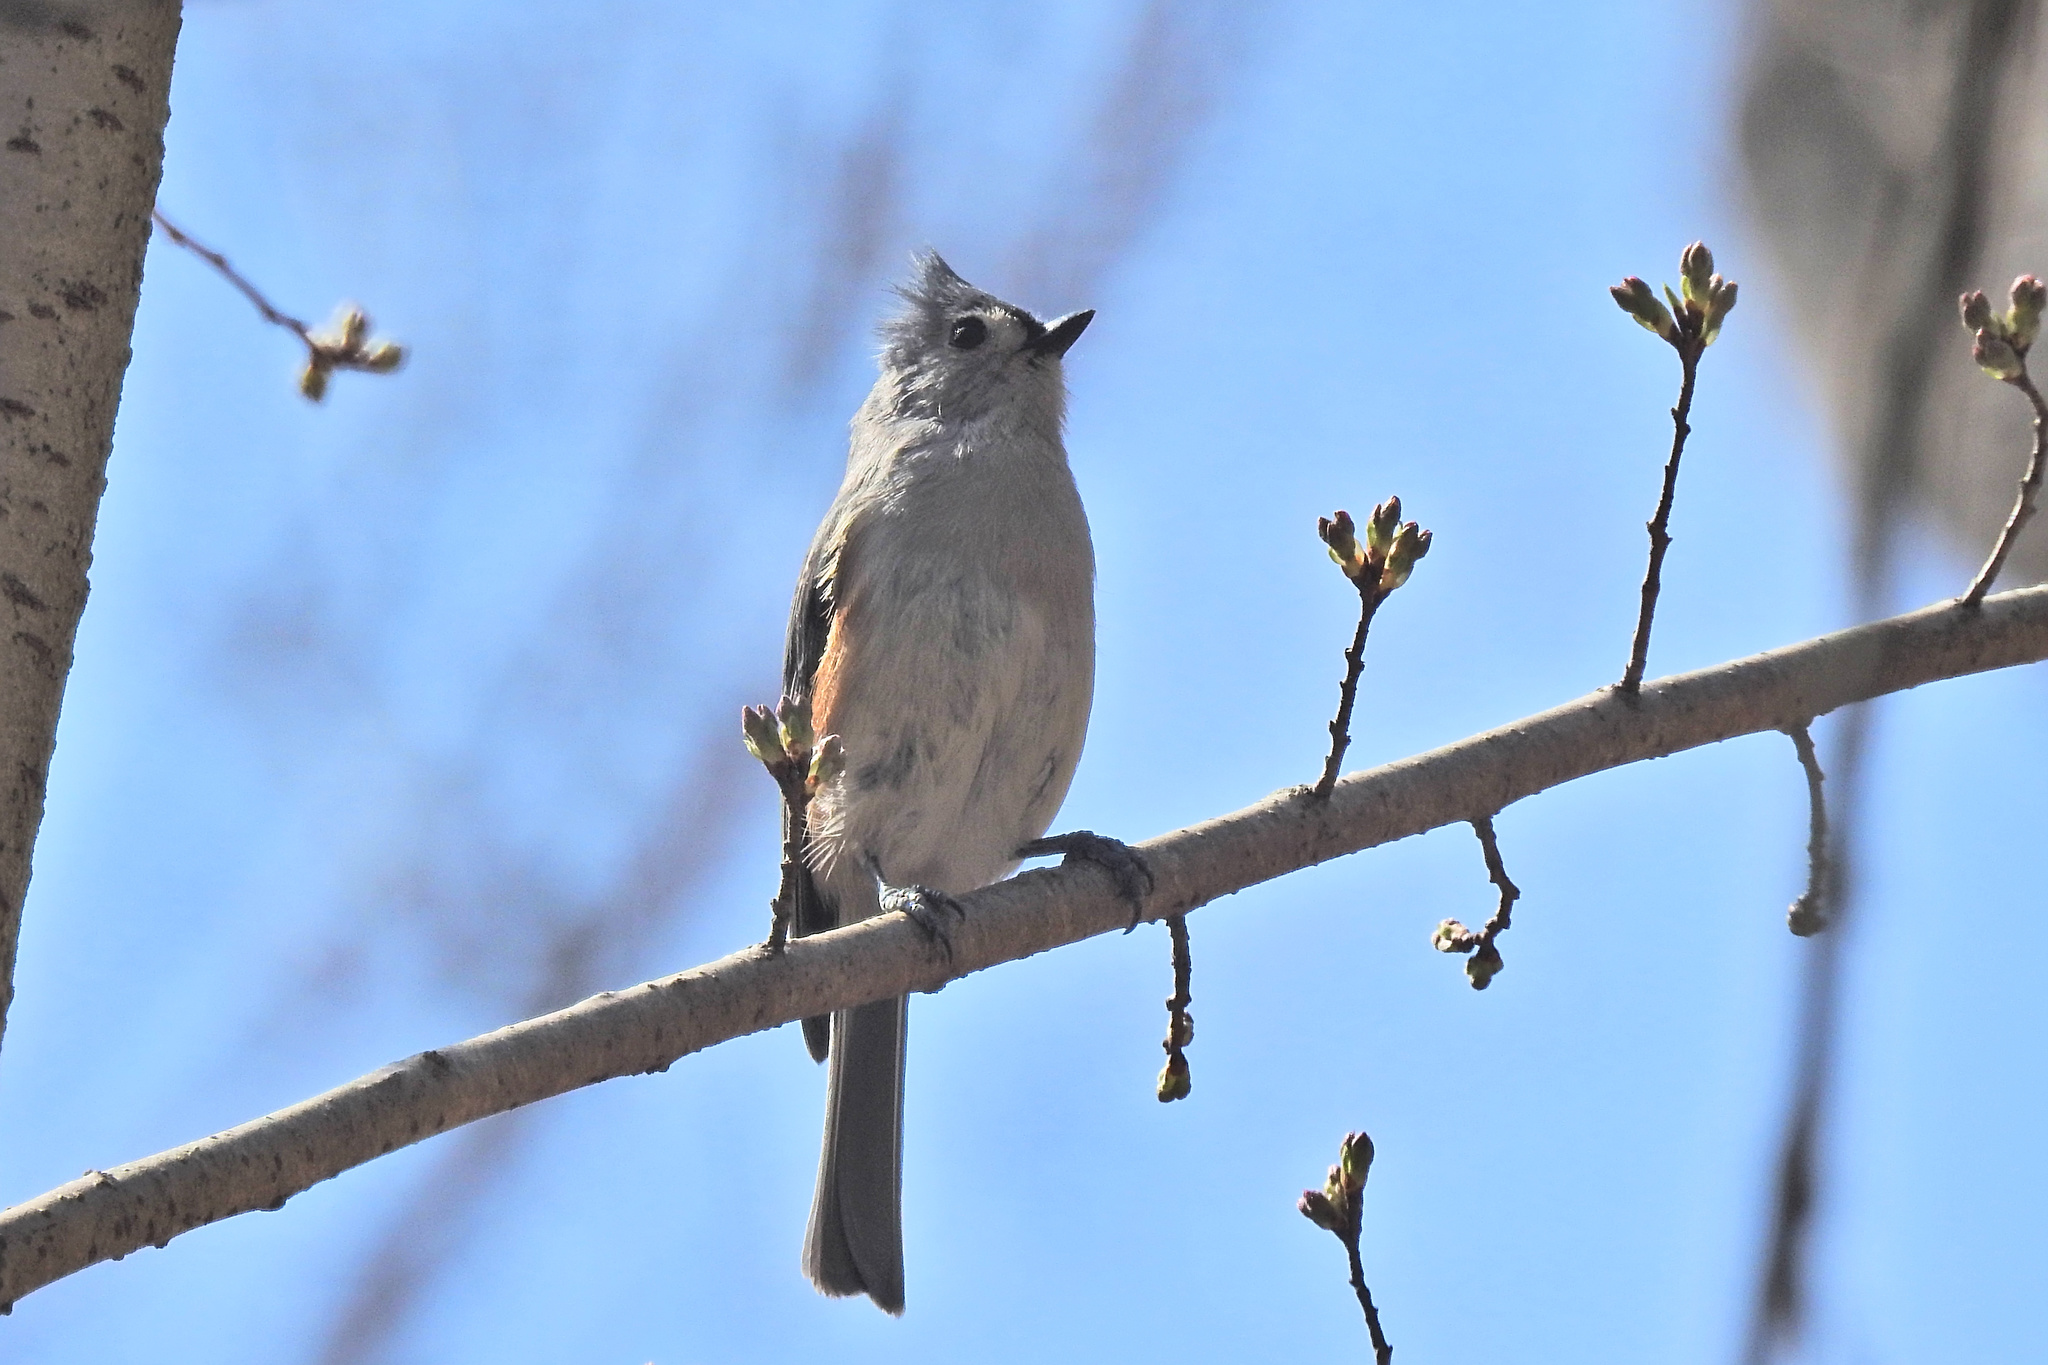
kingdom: Animalia
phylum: Chordata
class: Aves
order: Passeriformes
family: Paridae
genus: Baeolophus
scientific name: Baeolophus bicolor
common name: Tufted titmouse
